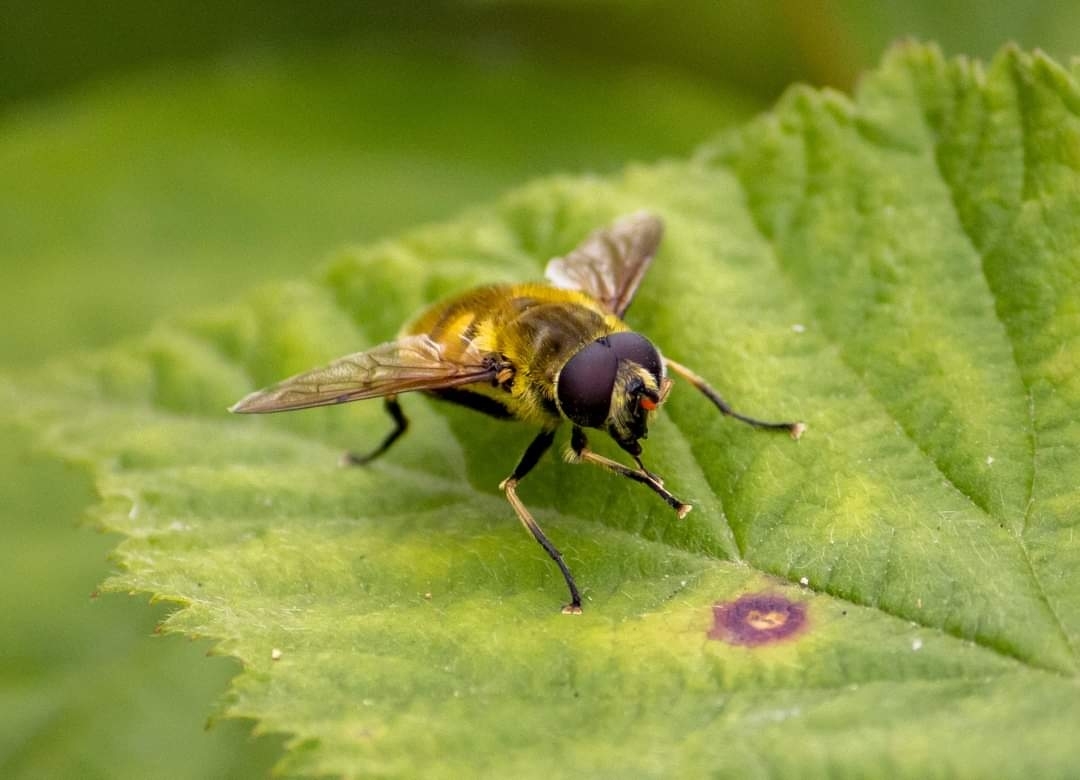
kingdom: Animalia
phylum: Arthropoda
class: Insecta
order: Diptera
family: Syrphidae
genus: Myathropa
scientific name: Myathropa florea
